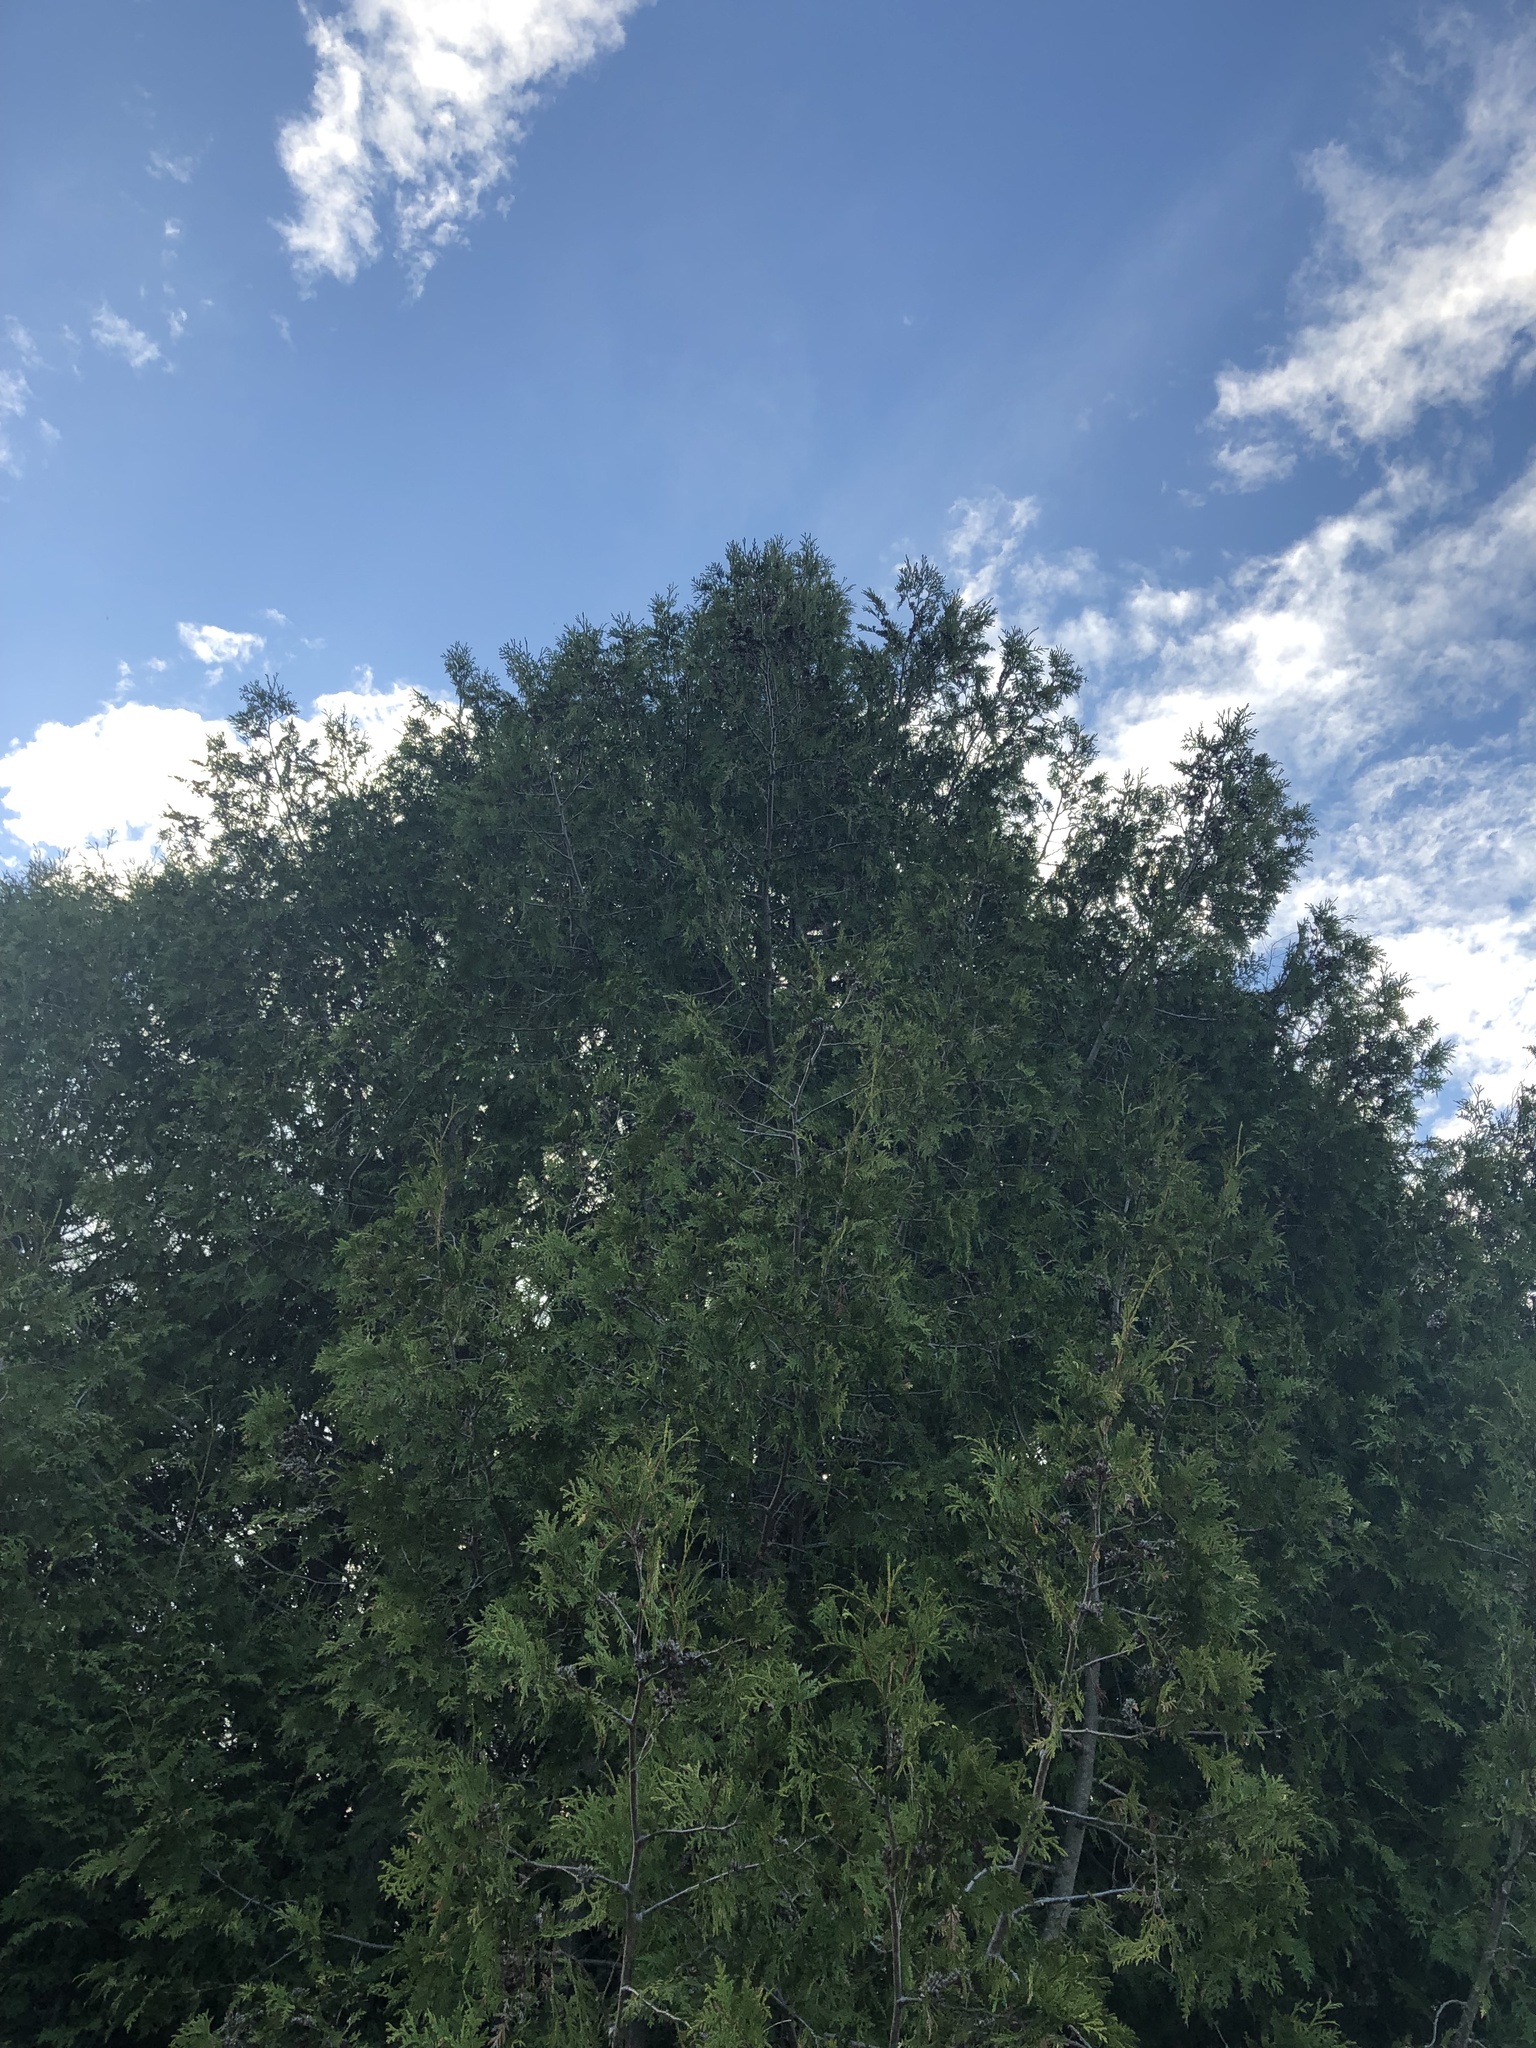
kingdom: Plantae
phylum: Tracheophyta
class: Pinopsida
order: Pinales
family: Cupressaceae
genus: Thuja
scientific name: Thuja occidentalis
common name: Northern white-cedar
